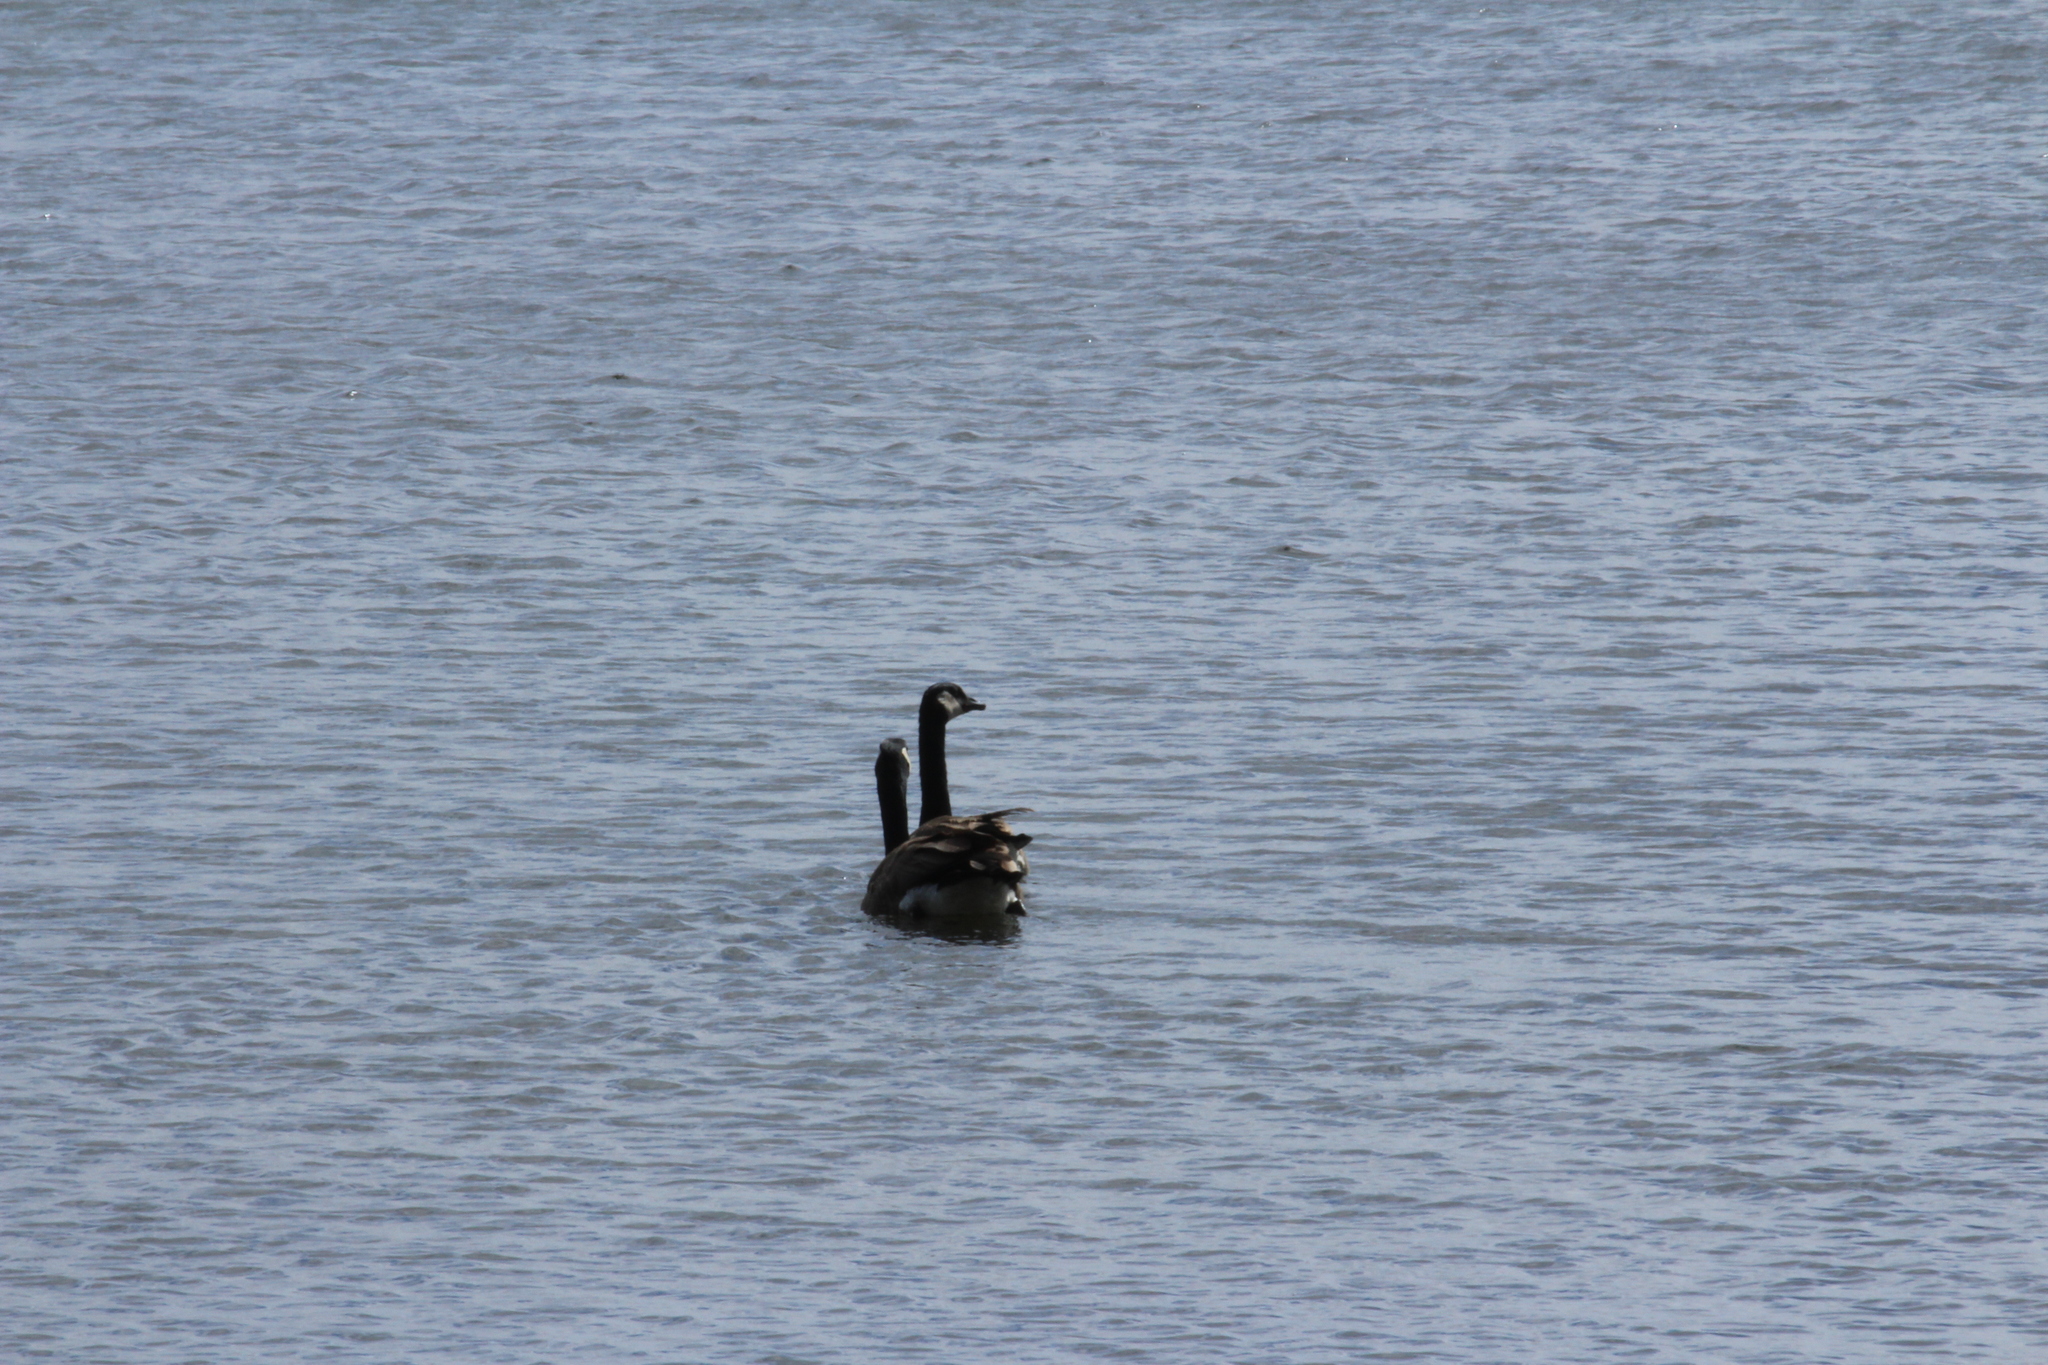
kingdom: Animalia
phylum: Chordata
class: Aves
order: Anseriformes
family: Anatidae
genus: Branta
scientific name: Branta canadensis
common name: Canada goose
